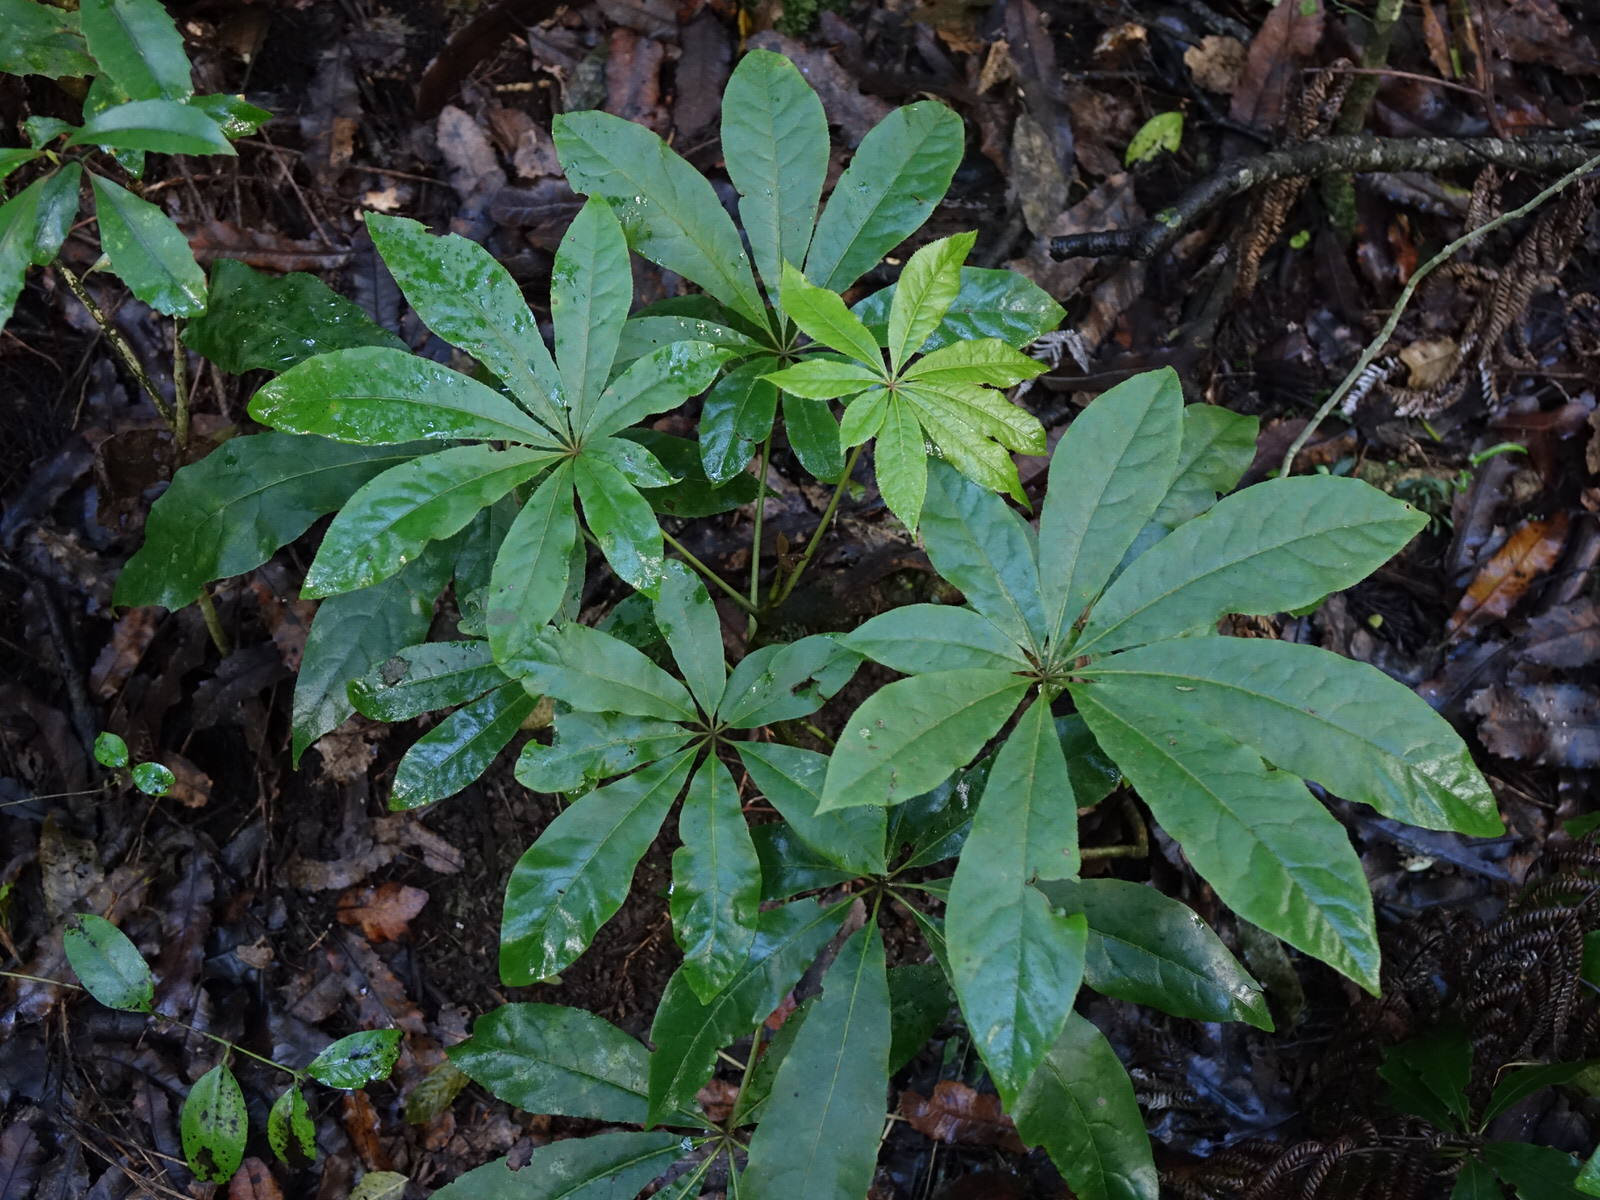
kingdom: Plantae
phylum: Tracheophyta
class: Magnoliopsida
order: Apiales
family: Araliaceae
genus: Schefflera
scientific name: Schefflera digitata
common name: Pate
